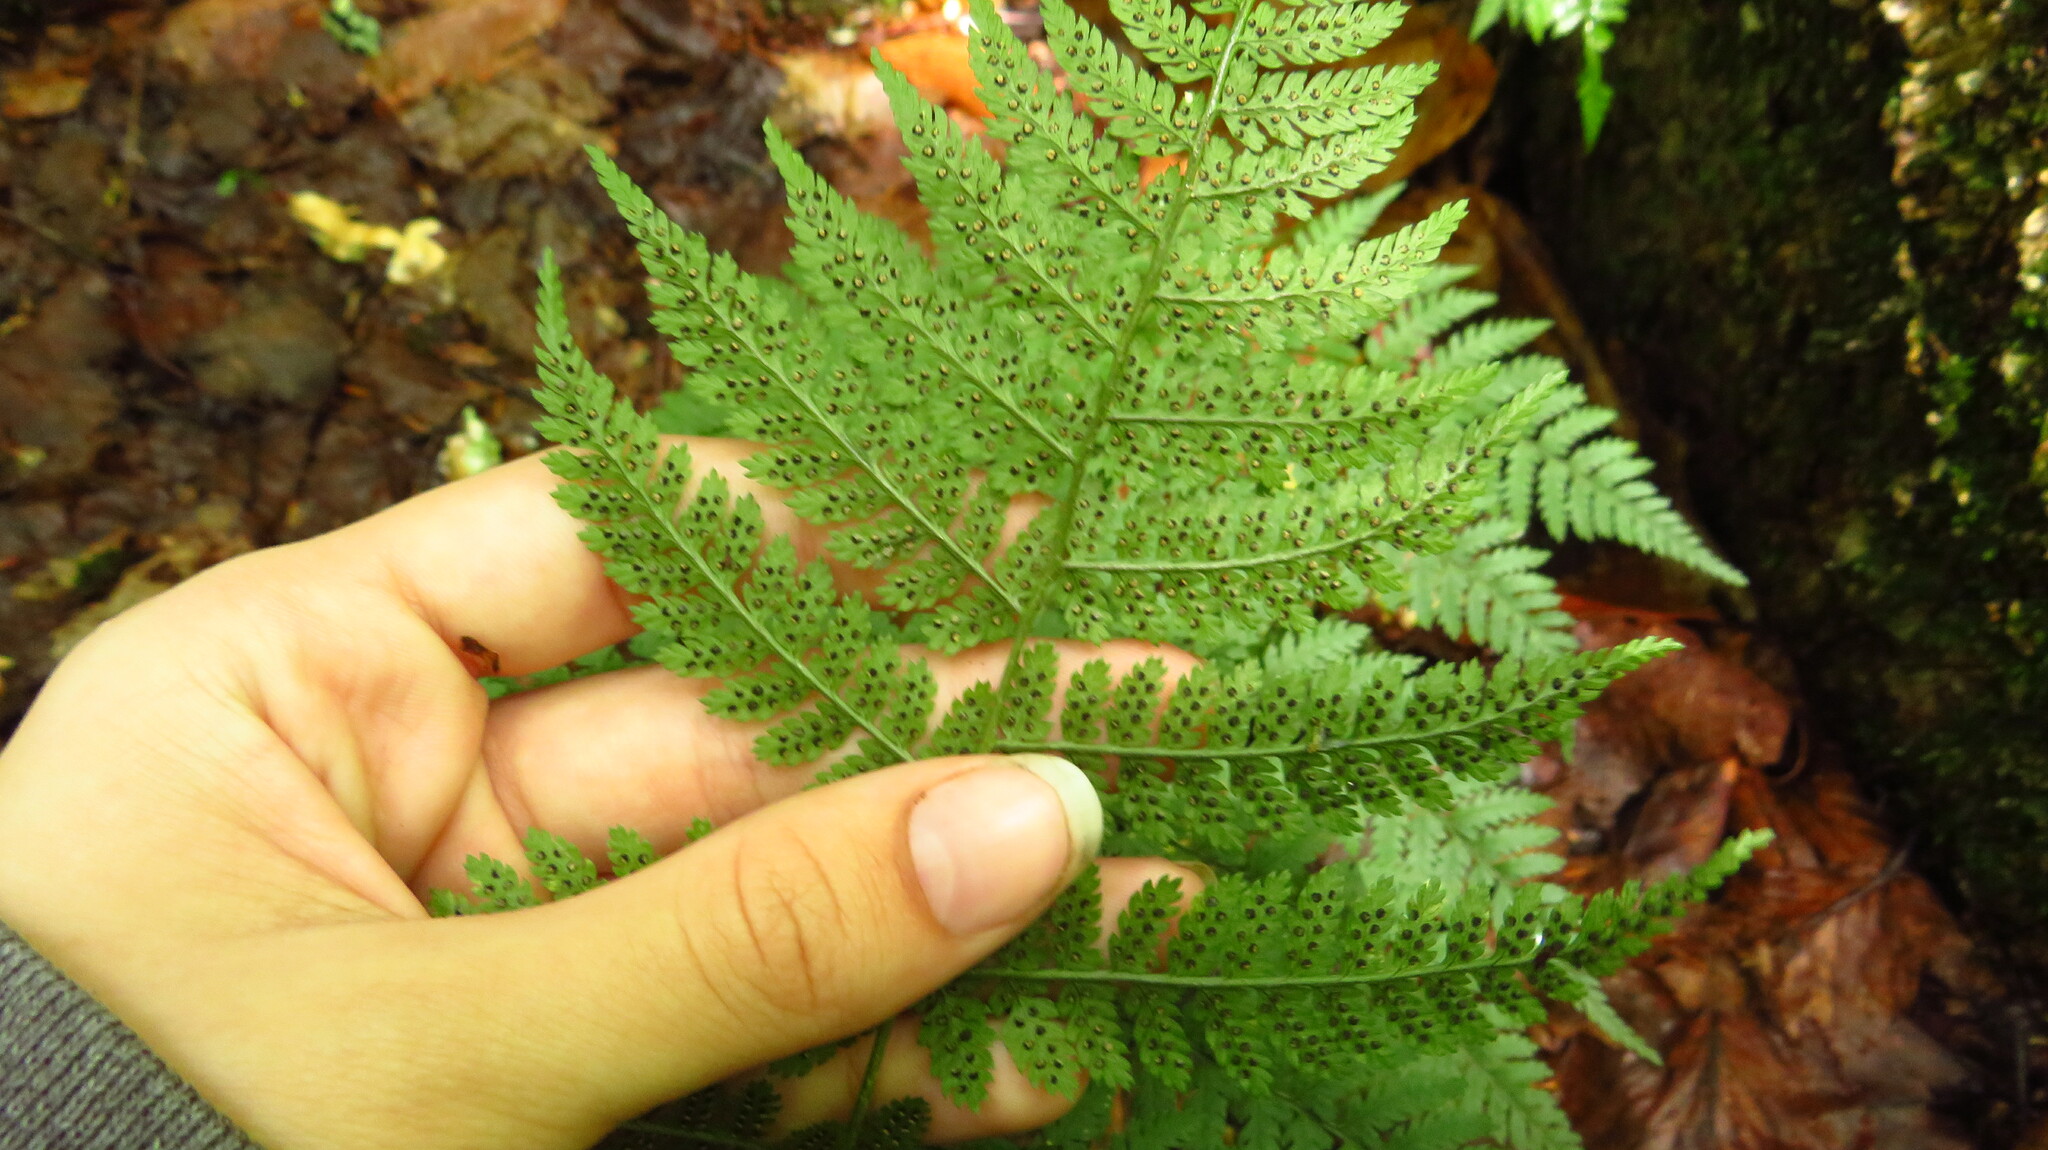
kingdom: Plantae
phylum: Tracheophyta
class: Polypodiopsida
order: Polypodiales
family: Dryopteridaceae
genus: Dryopteris
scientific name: Dryopteris intermedia
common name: Evergreen wood fern
